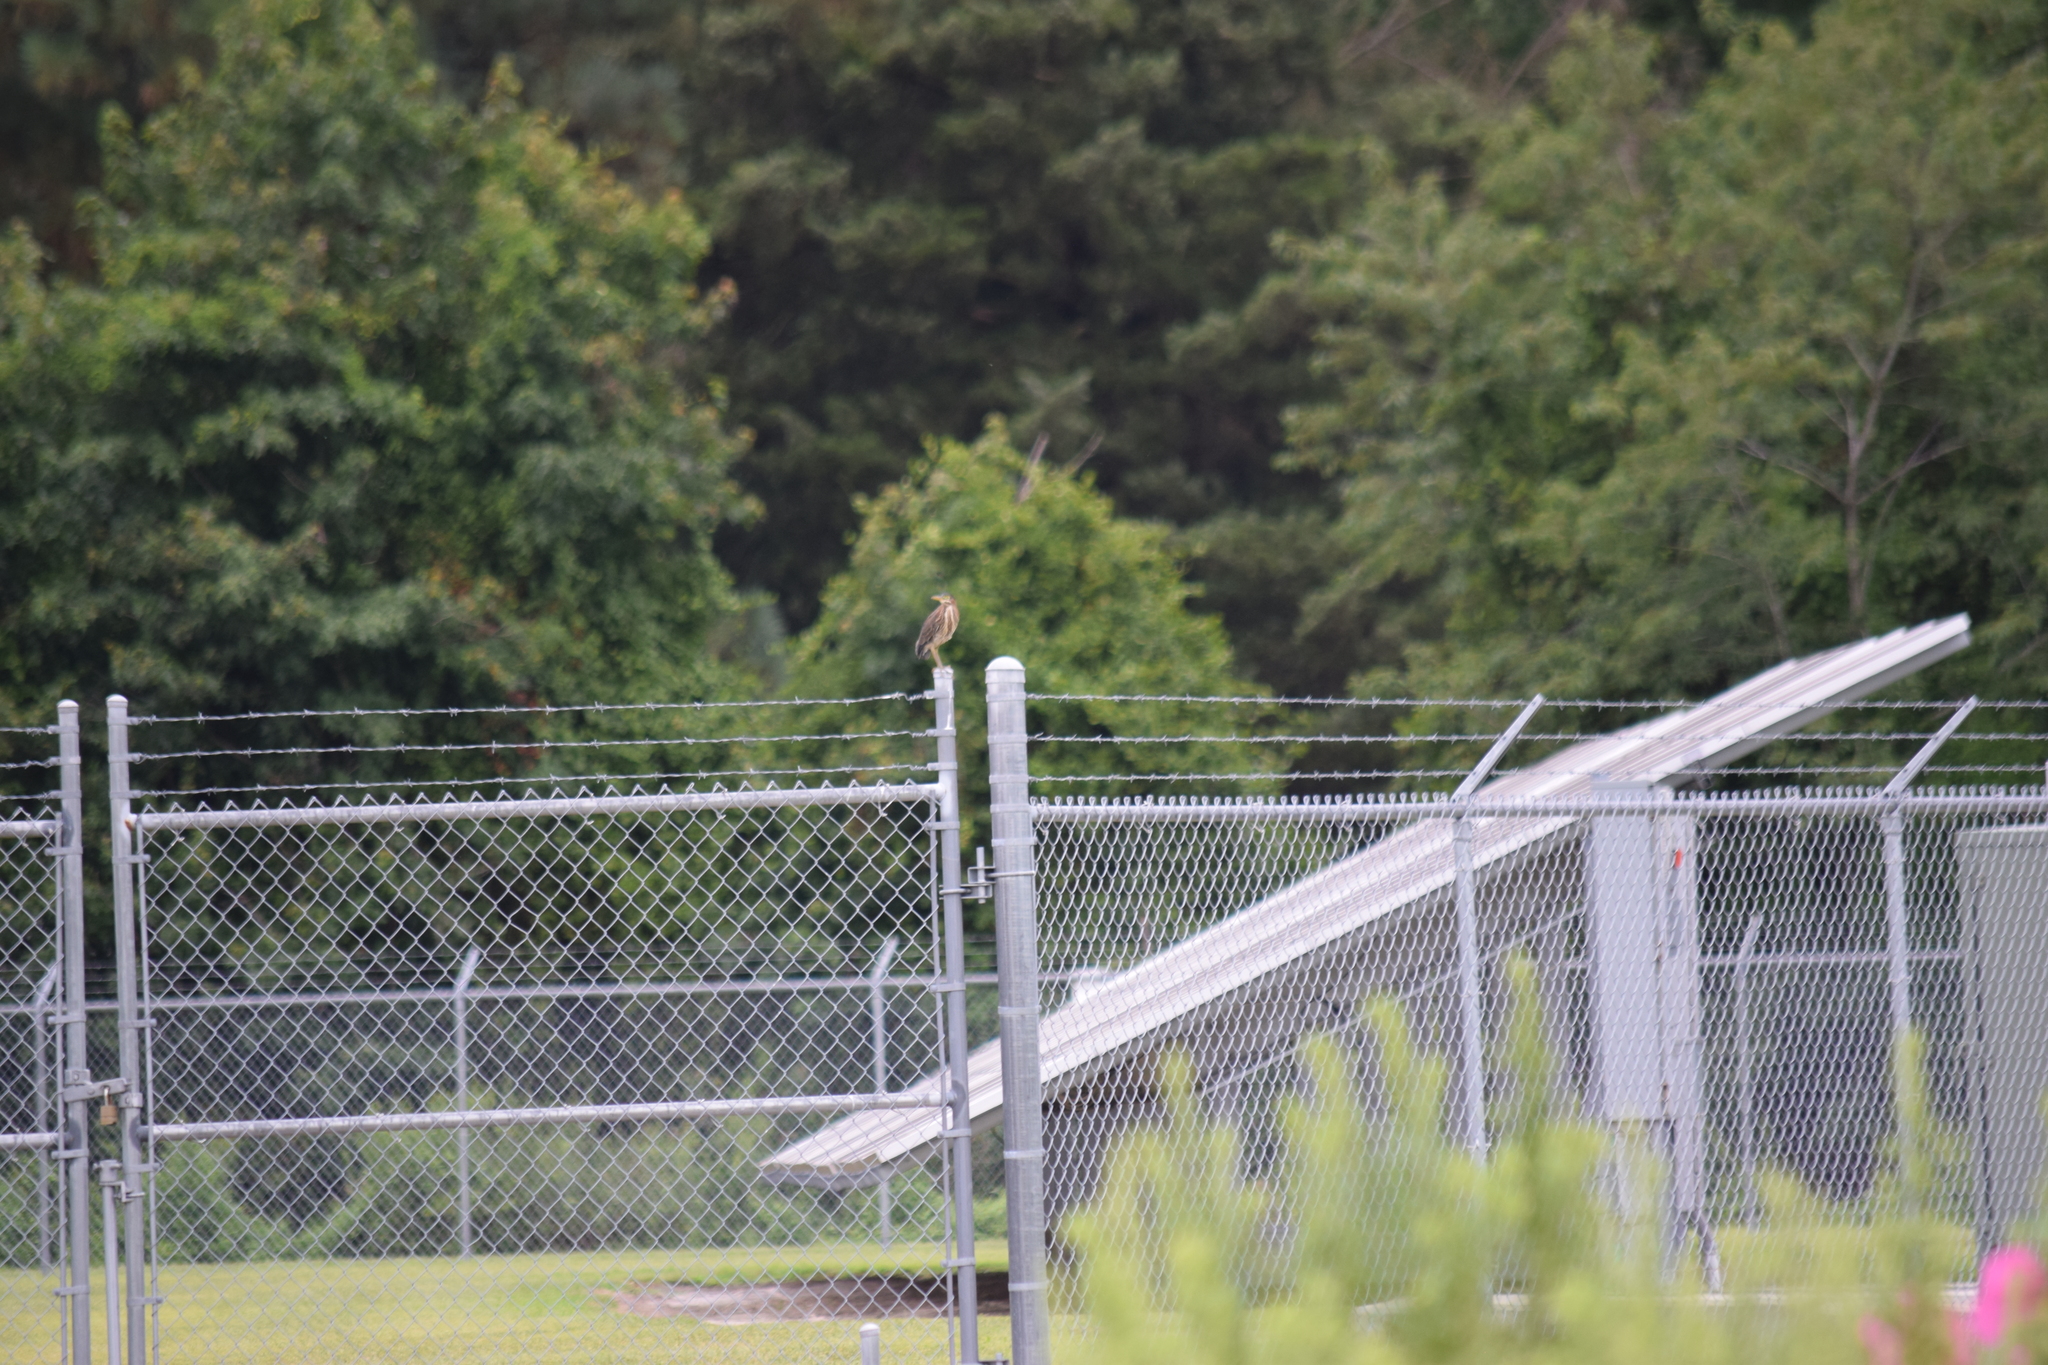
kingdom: Animalia
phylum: Chordata
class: Aves
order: Pelecaniformes
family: Ardeidae
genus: Butorides
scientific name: Butorides virescens
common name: Green heron
